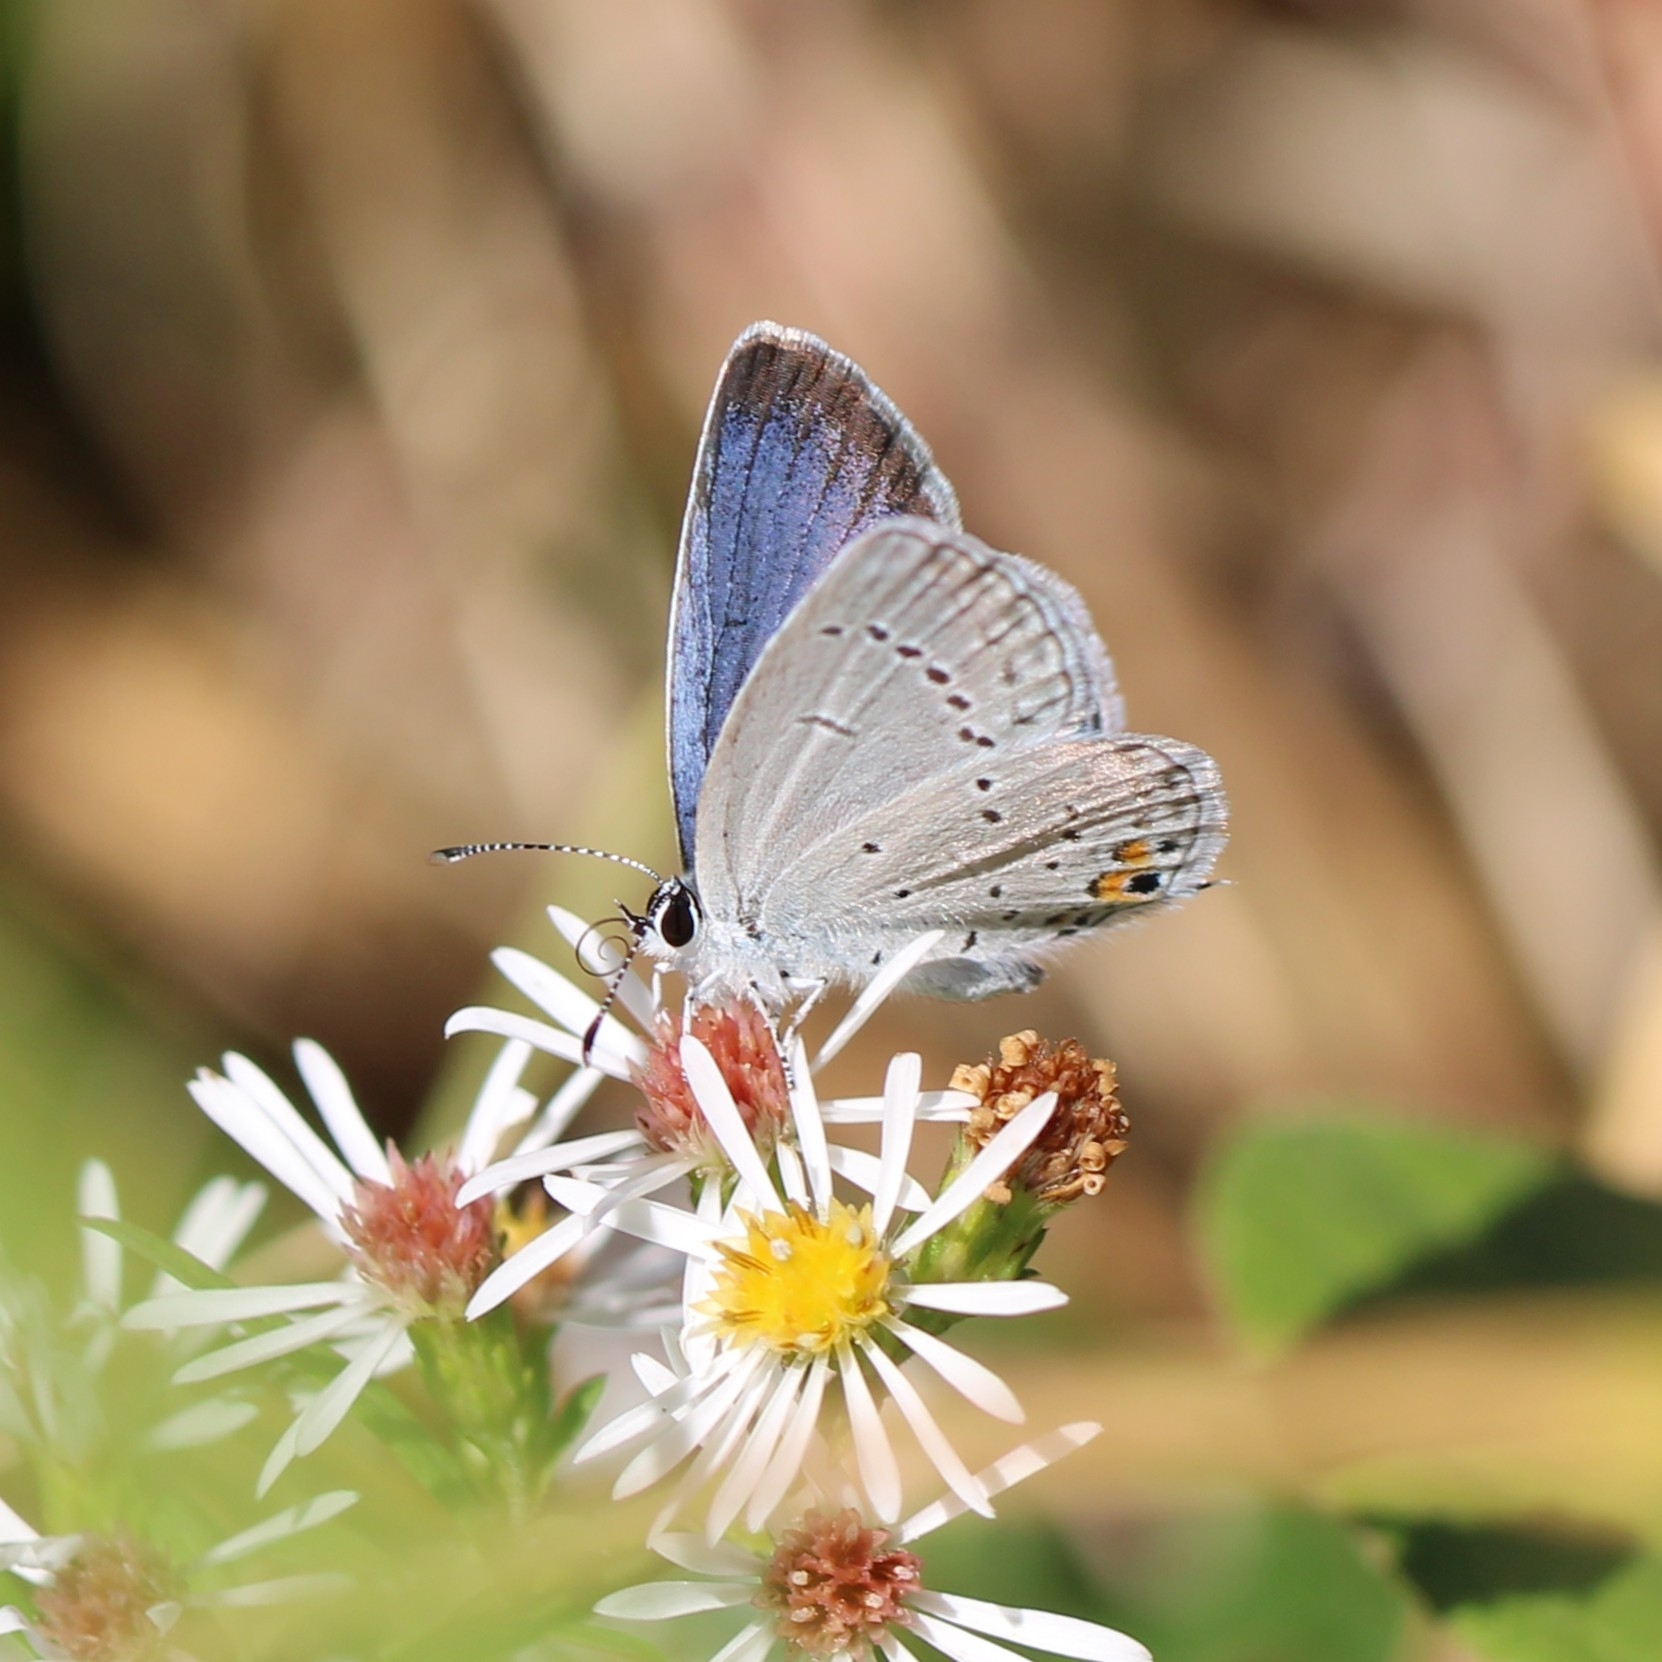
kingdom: Animalia
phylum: Arthropoda
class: Insecta
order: Lepidoptera
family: Lycaenidae
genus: Elkalyce
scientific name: Elkalyce comyntas
